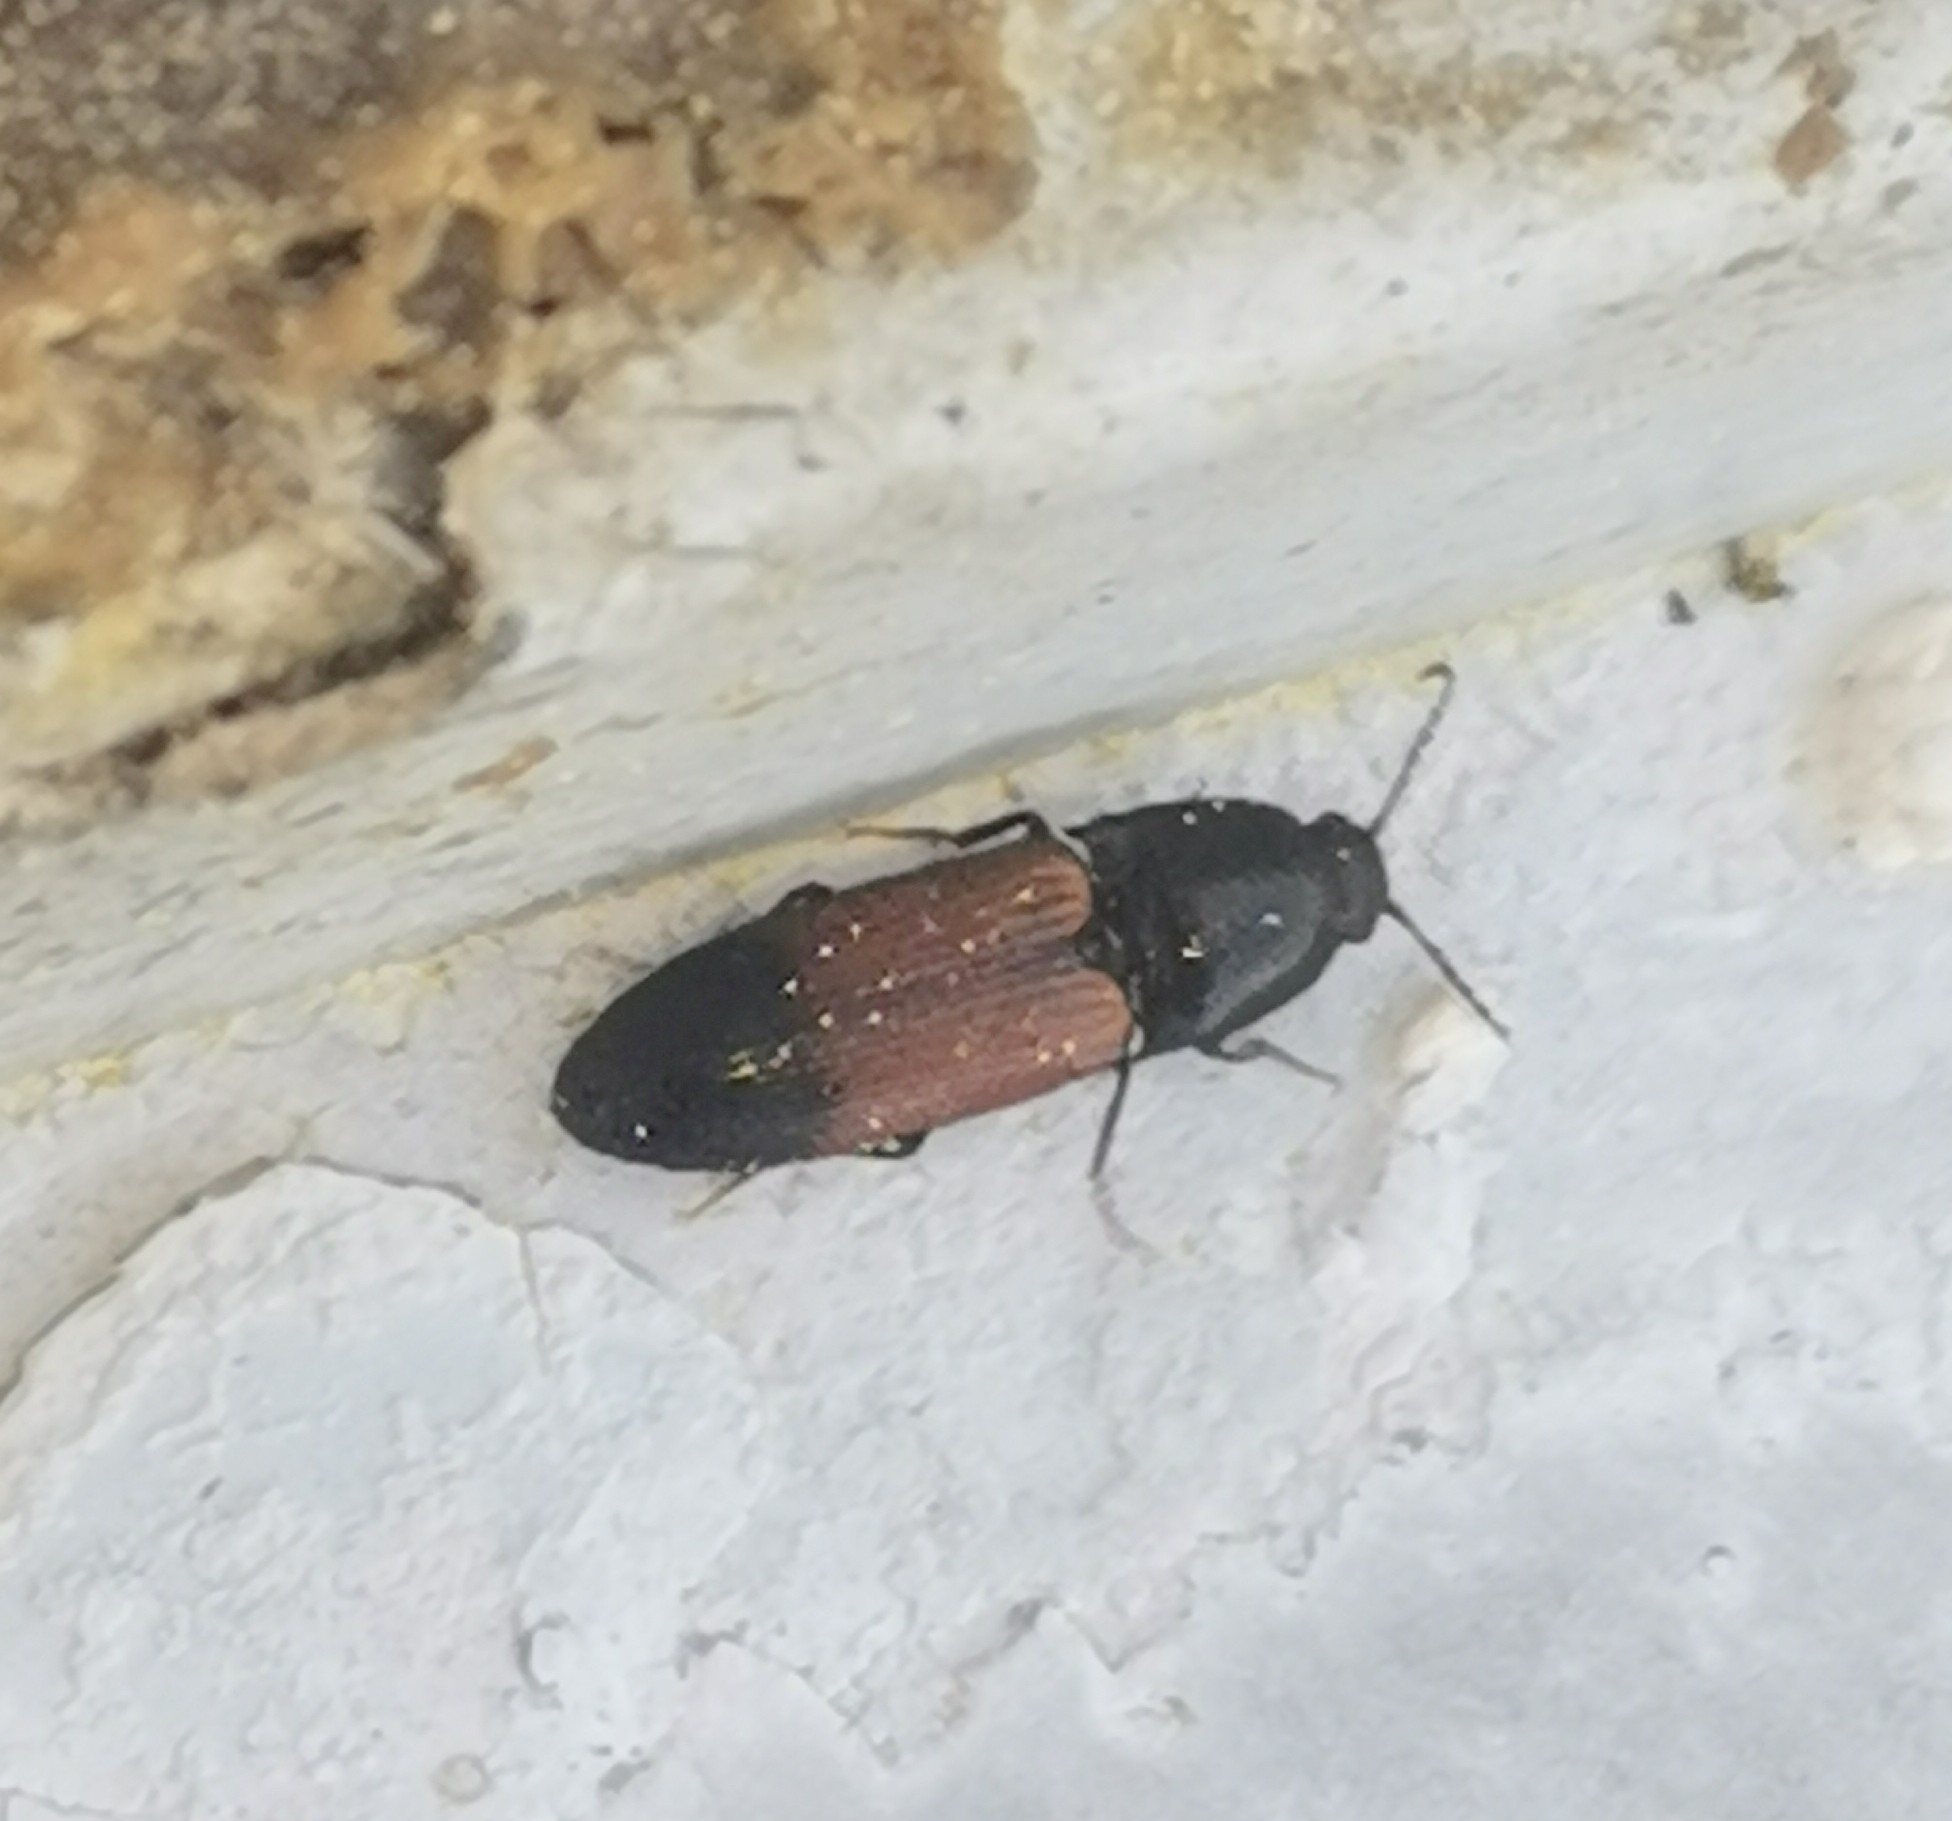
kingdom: Animalia
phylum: Arthropoda
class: Insecta
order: Coleoptera
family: Elateridae
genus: Ampedus
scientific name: Ampedus balteatus
